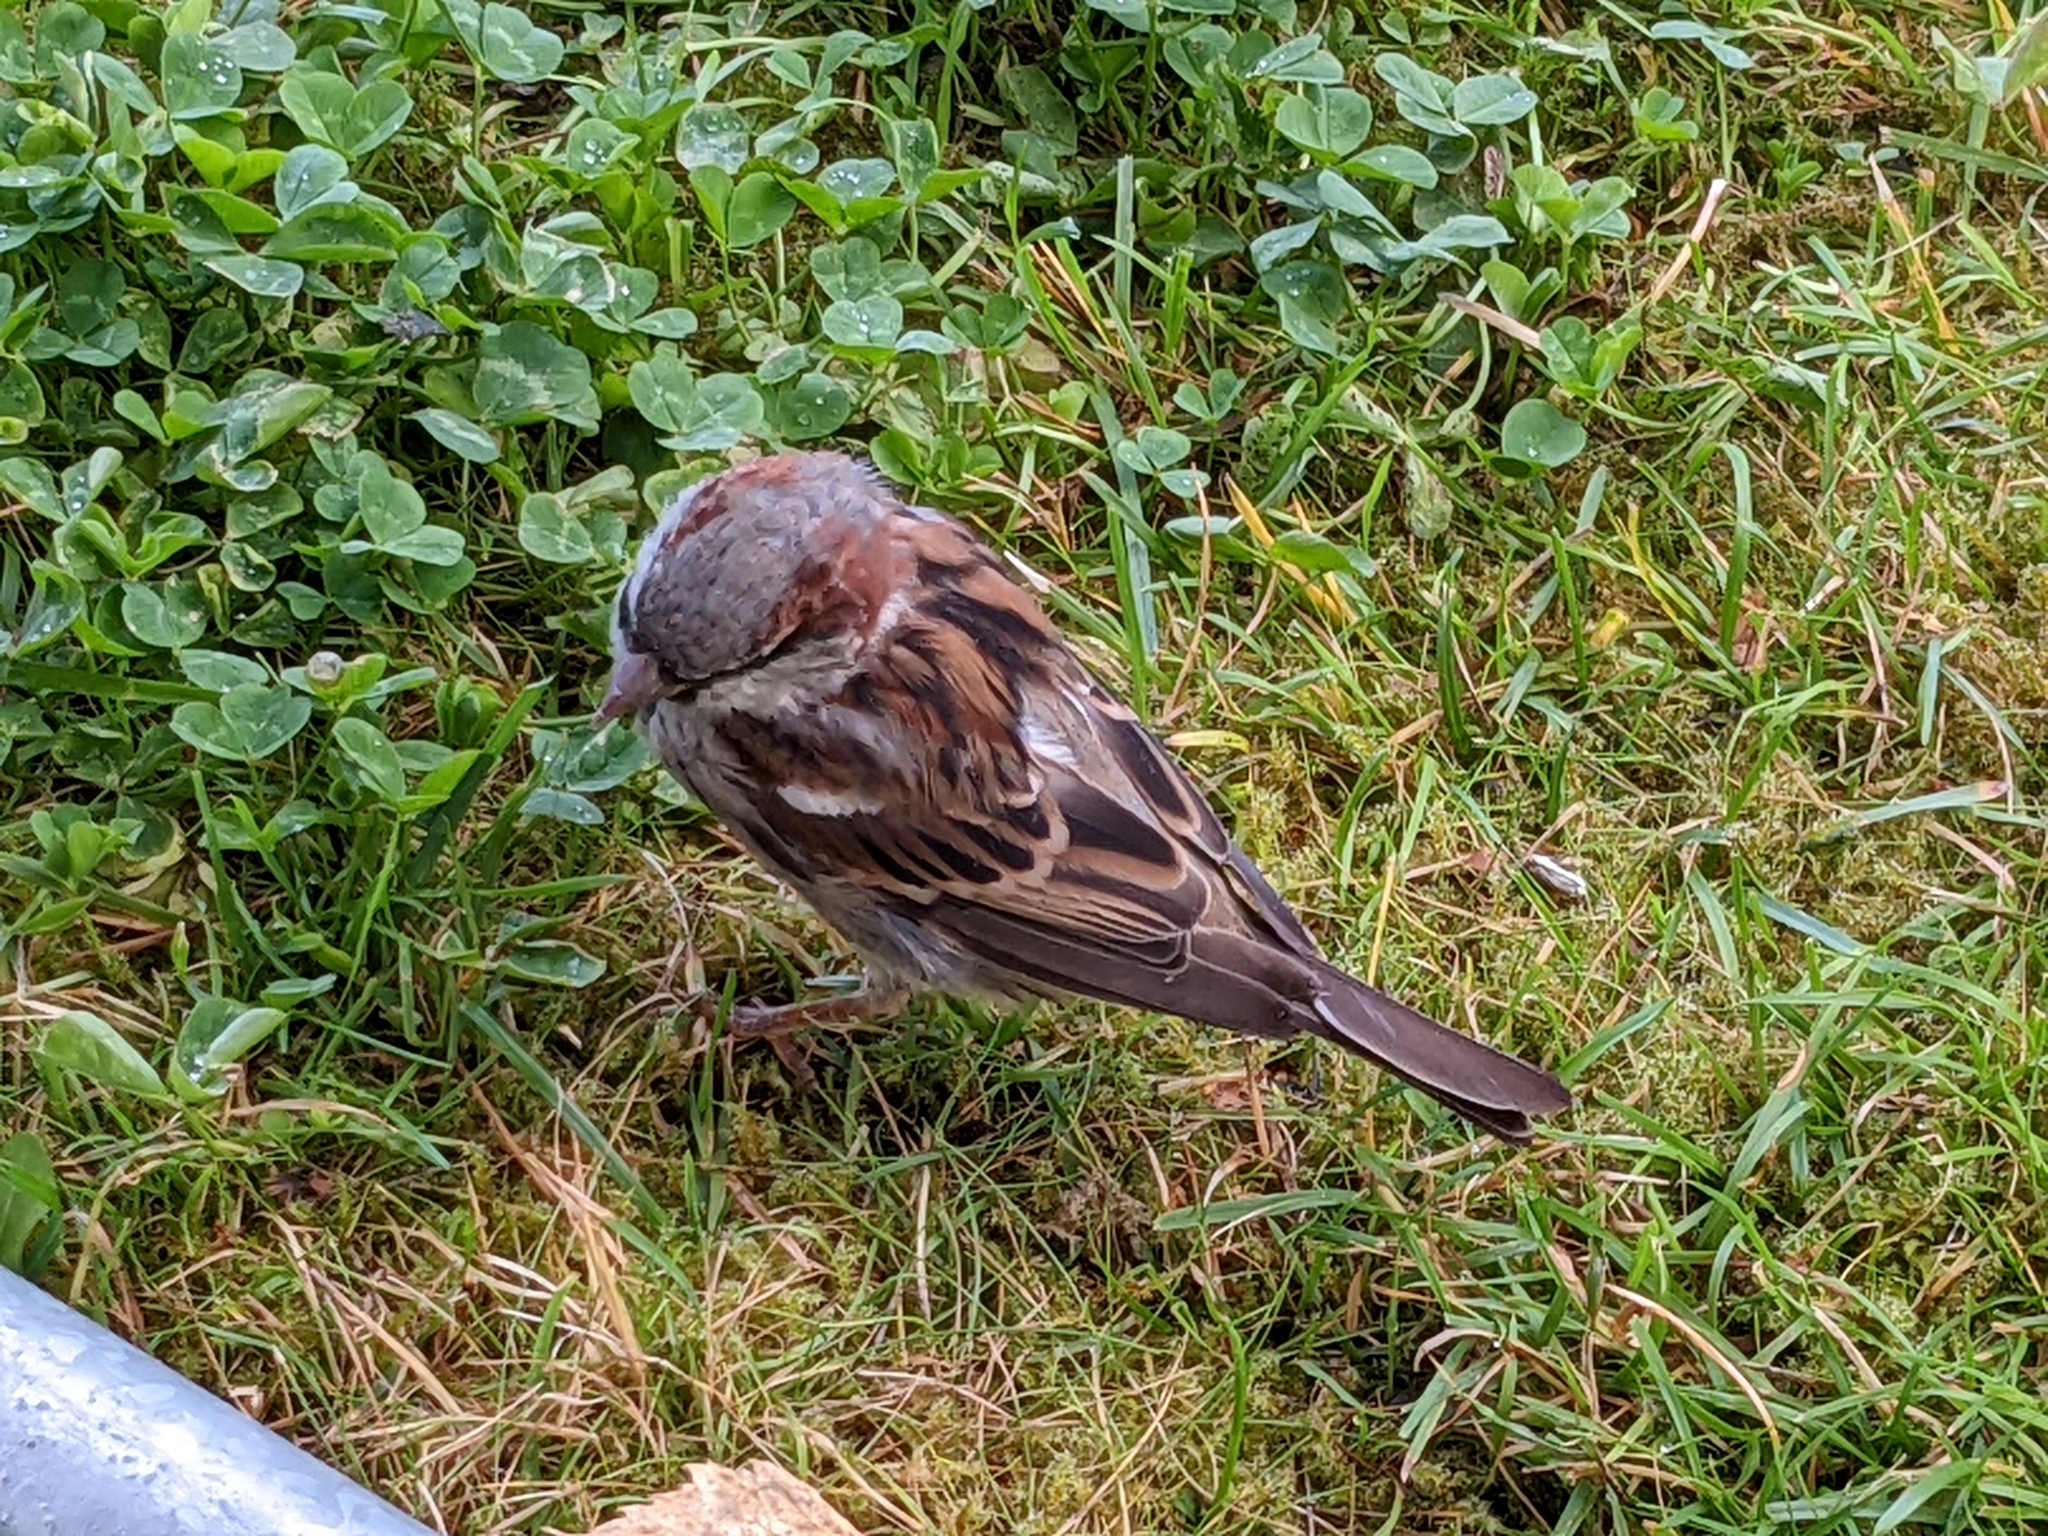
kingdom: Animalia
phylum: Chordata
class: Aves
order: Passeriformes
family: Passeridae
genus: Passer
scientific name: Passer domesticus
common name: House sparrow
